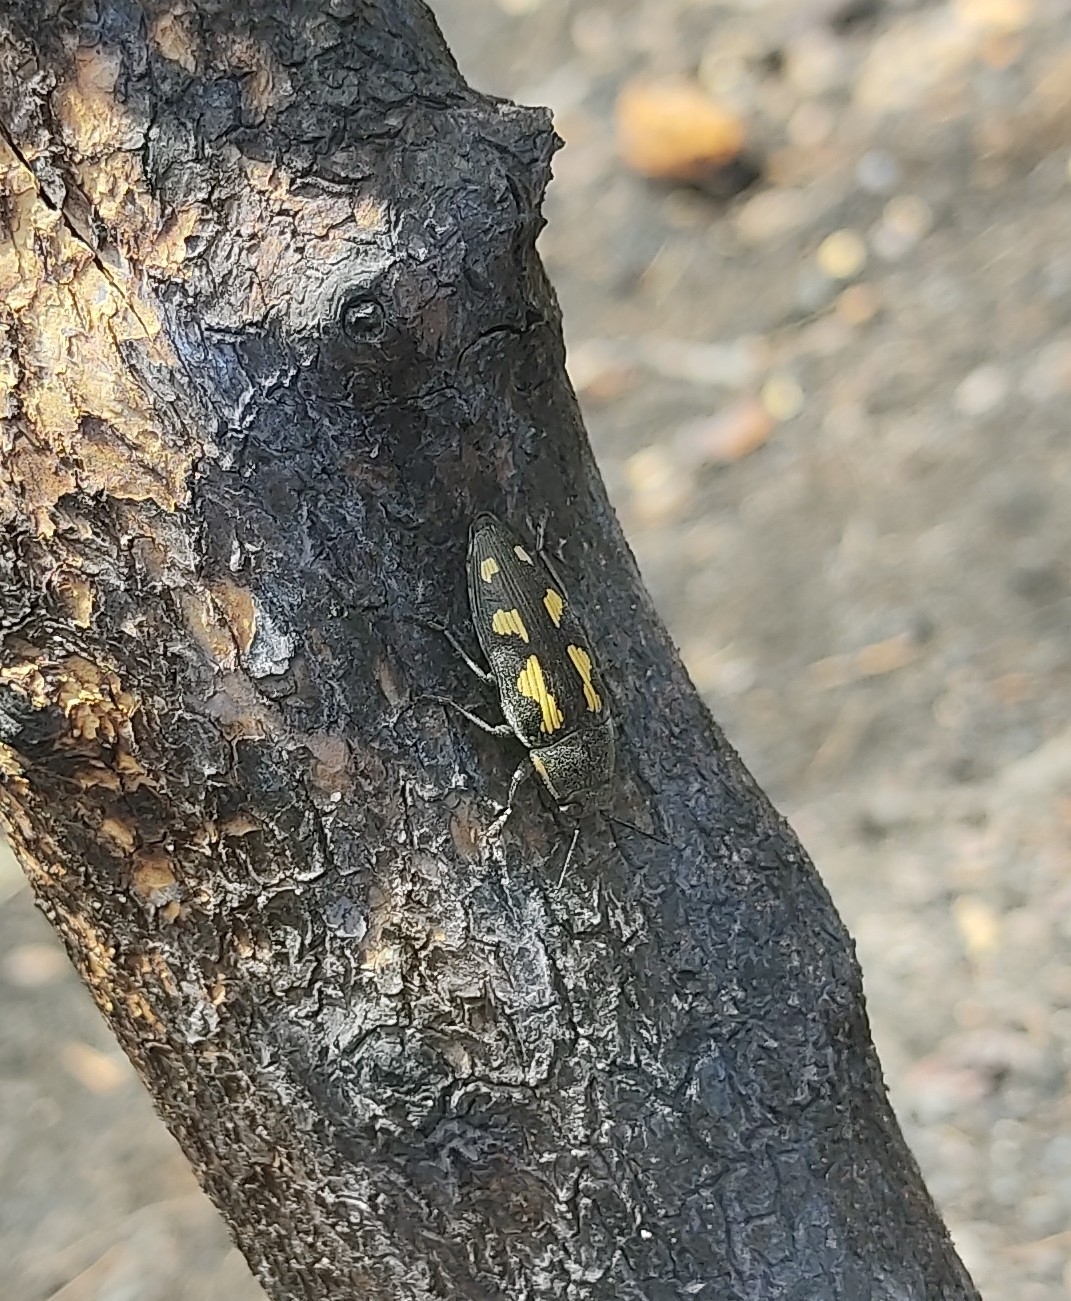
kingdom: Animalia
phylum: Arthropoda
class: Insecta
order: Coleoptera
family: Buprestidae
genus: Buprestis
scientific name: Buprestis novemmaculata
